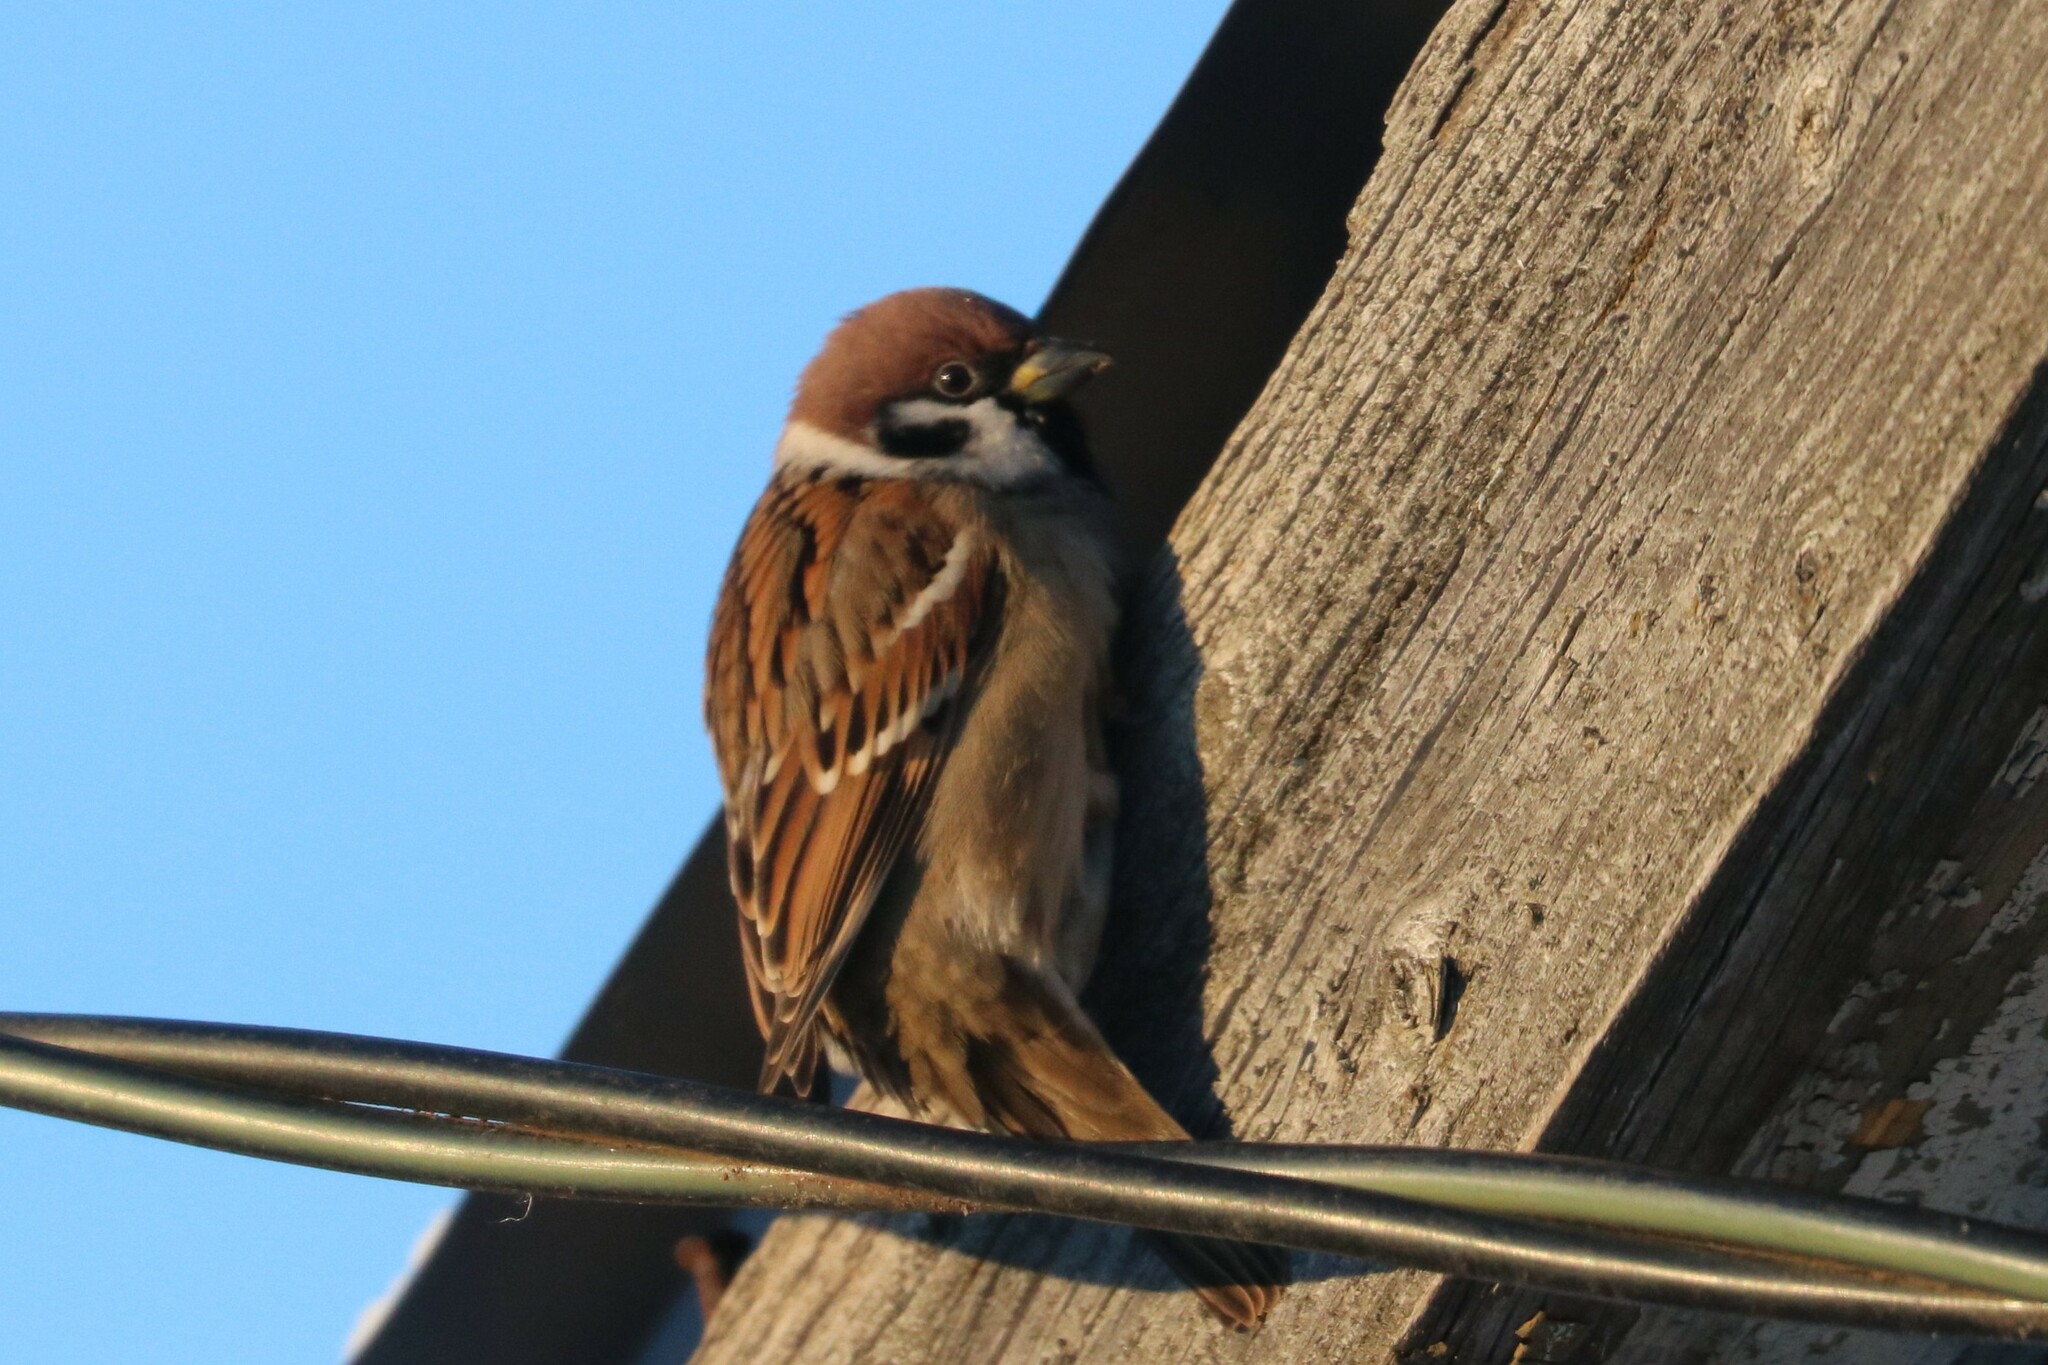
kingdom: Animalia
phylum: Chordata
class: Aves
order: Passeriformes
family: Passeridae
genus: Passer
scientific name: Passer montanus
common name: Eurasian tree sparrow
